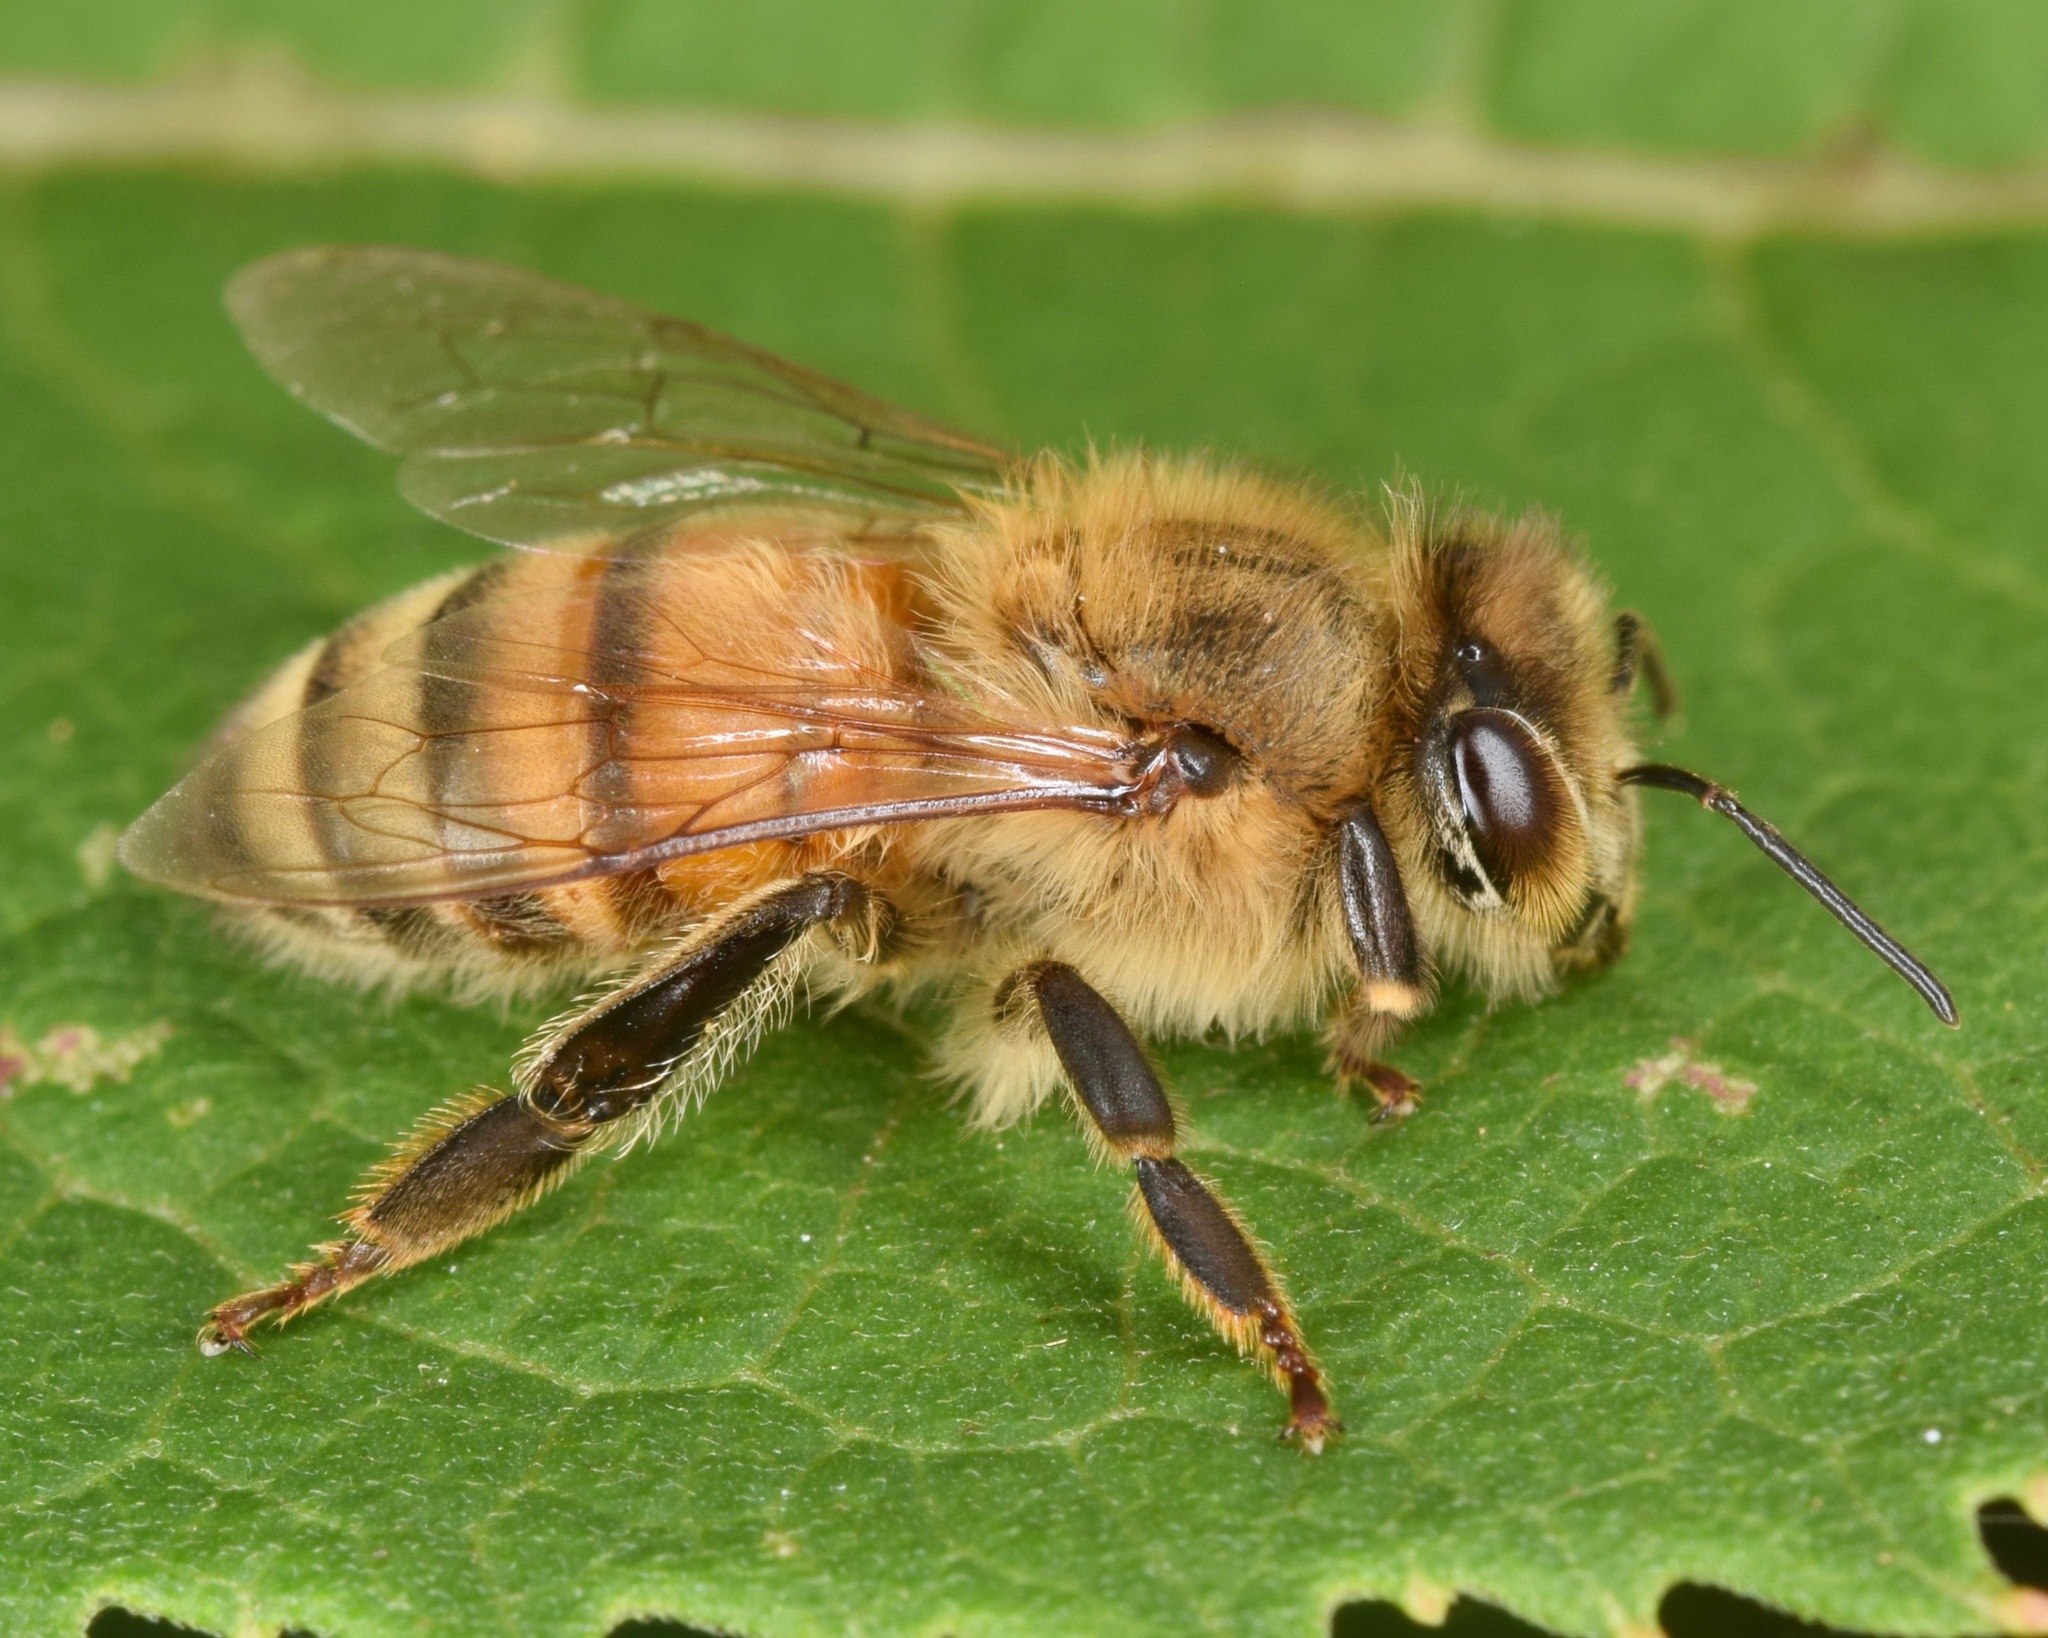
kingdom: Animalia
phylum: Arthropoda
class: Insecta
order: Hymenoptera
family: Apidae
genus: Apis
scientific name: Apis mellifera
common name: Honey bee
